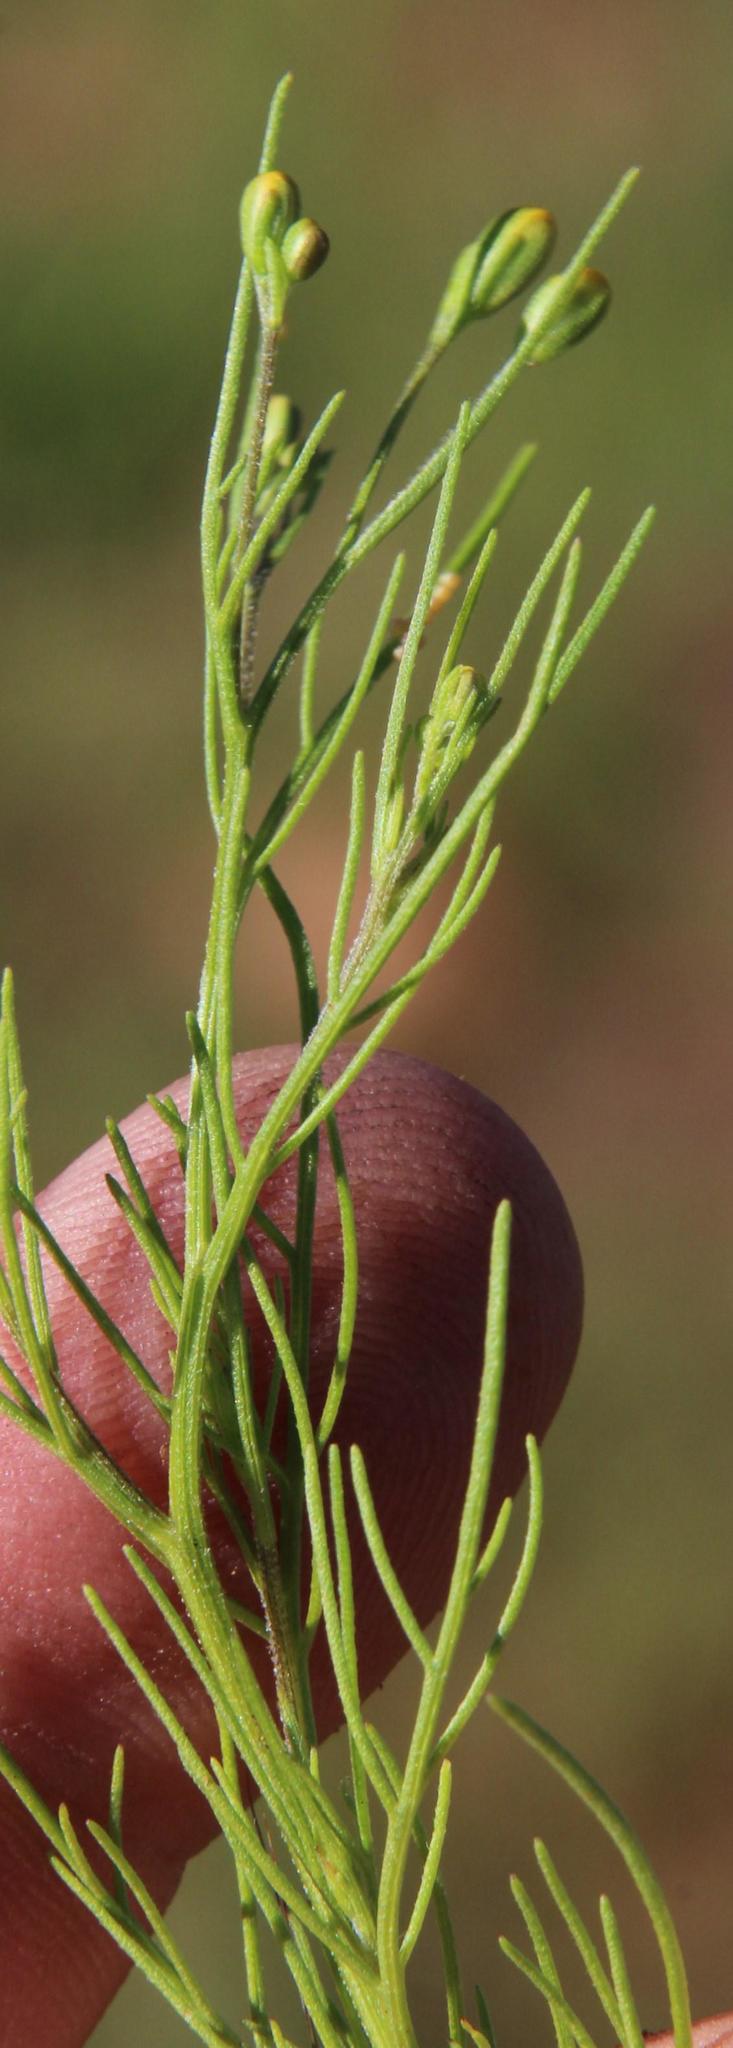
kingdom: Plantae
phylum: Tracheophyta
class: Magnoliopsida
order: Asterales
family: Asteraceae
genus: Schkuhria
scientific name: Schkuhria pinnata
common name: Dwarf marigold
